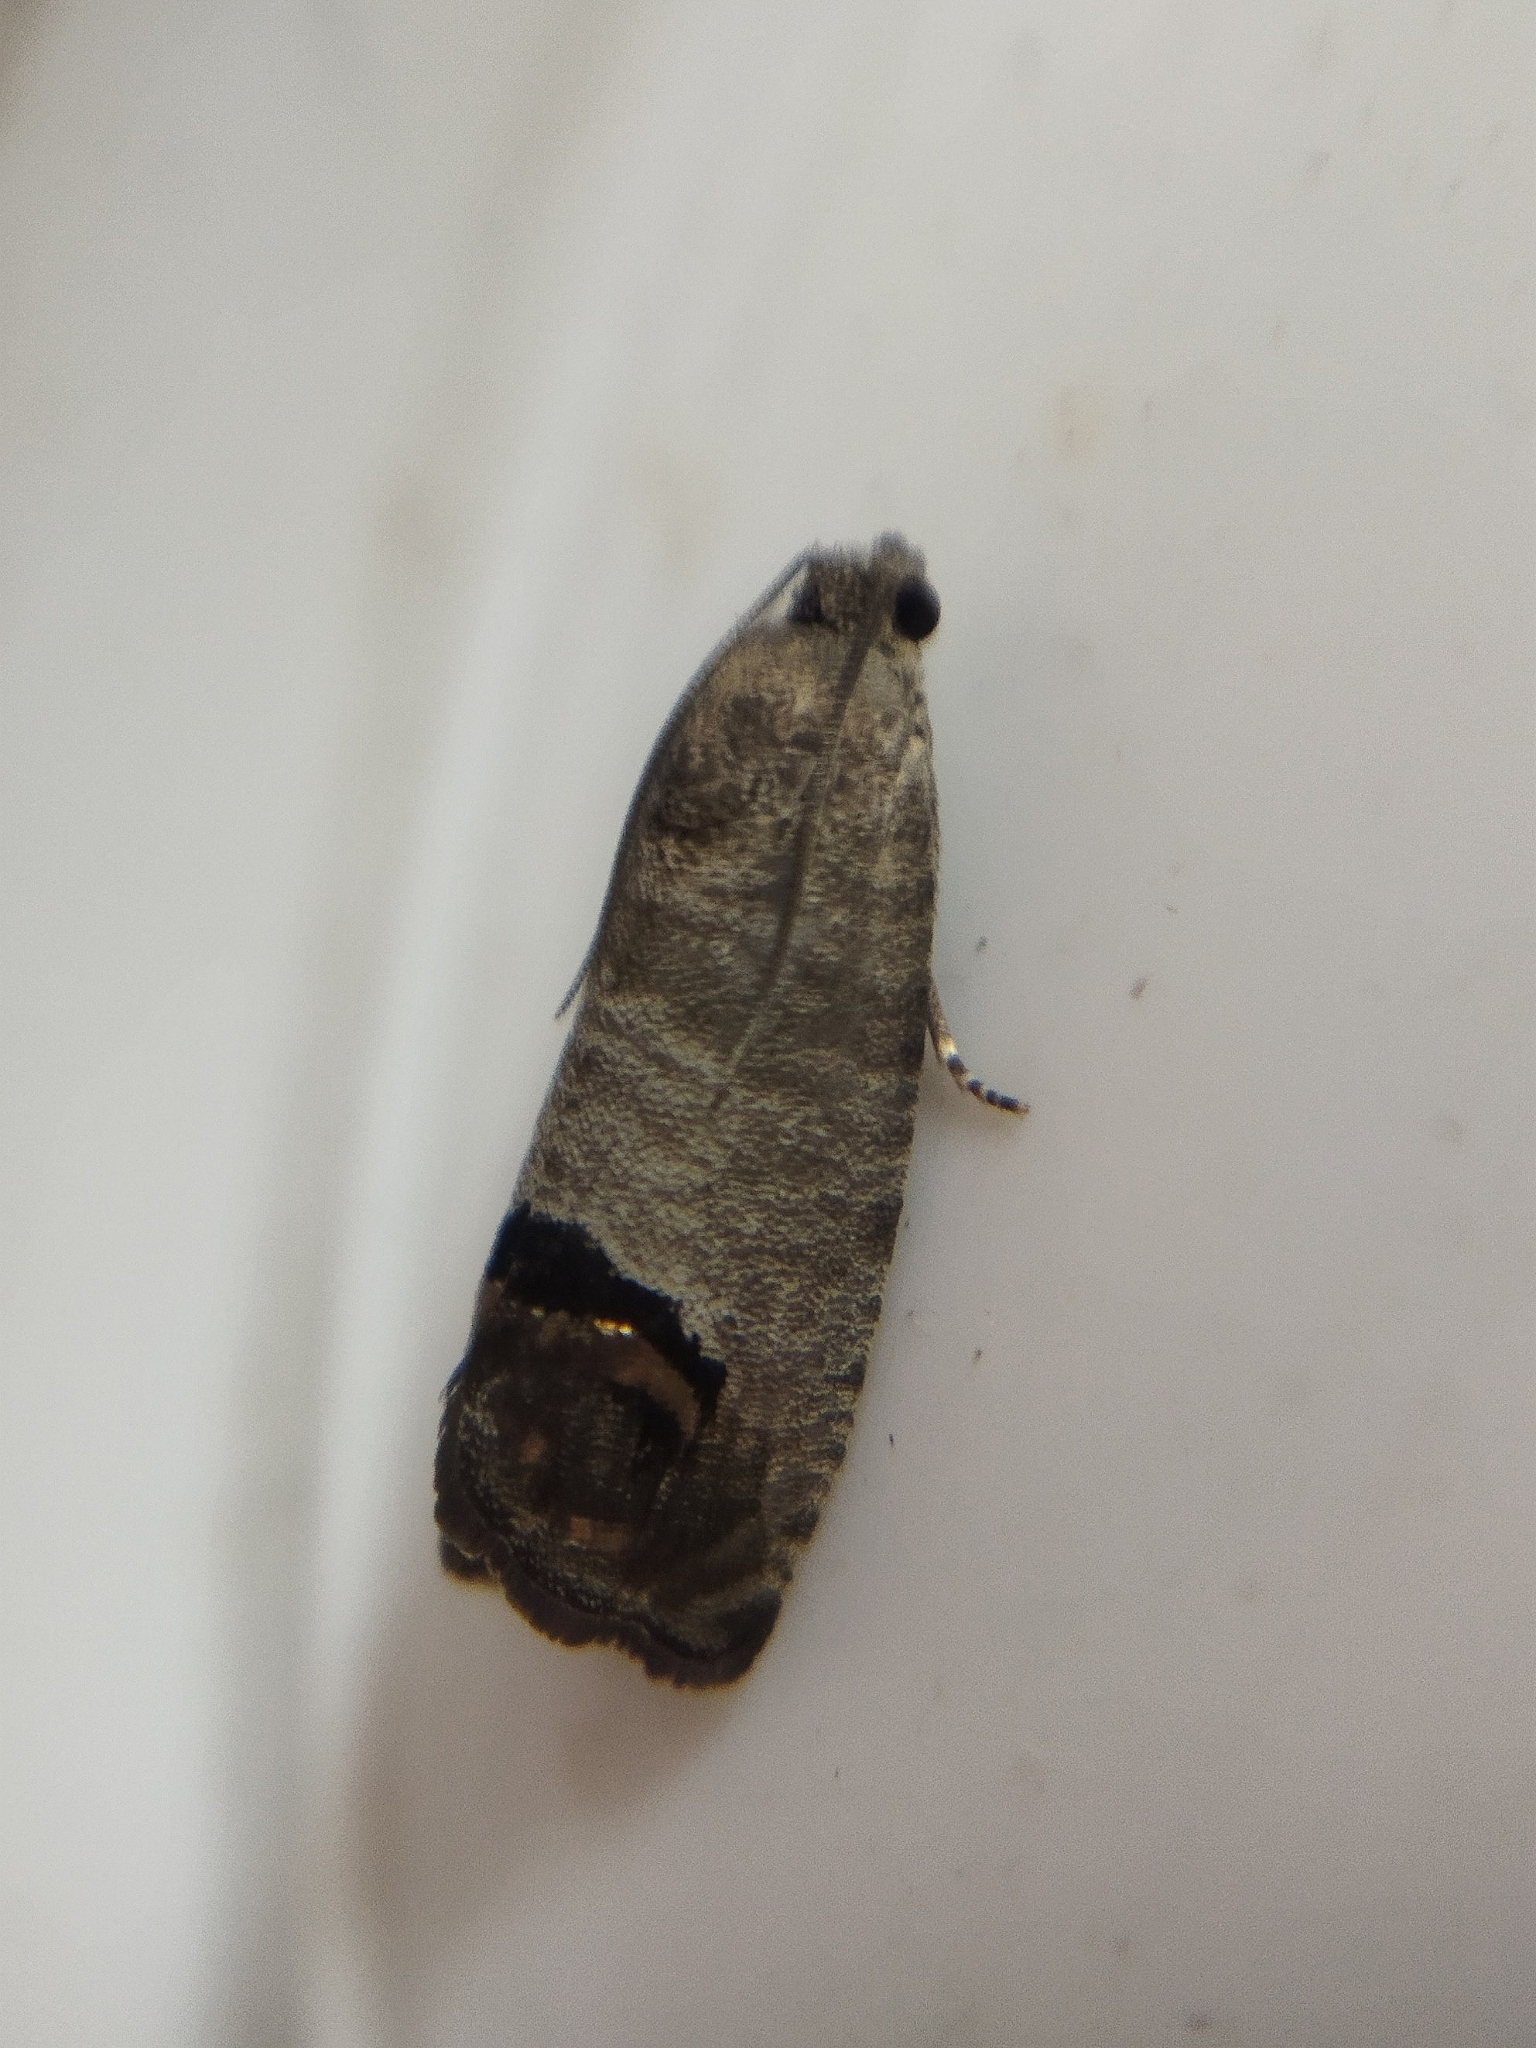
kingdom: Animalia
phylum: Arthropoda
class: Insecta
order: Lepidoptera
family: Tortricidae
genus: Cydia
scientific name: Cydia pomonella
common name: Codling moth
